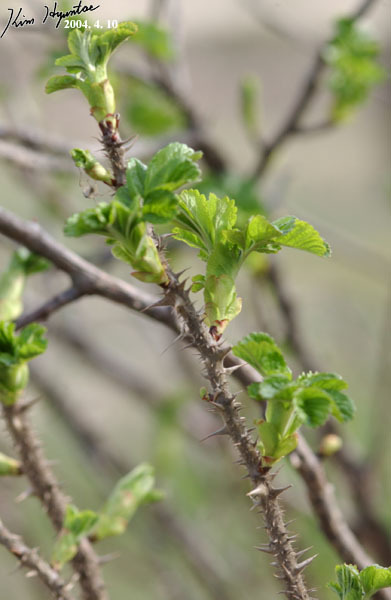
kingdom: Plantae
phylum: Tracheophyta
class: Magnoliopsida
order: Rosales
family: Rosaceae
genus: Rosa
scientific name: Rosa rugosa
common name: Japanese rose
